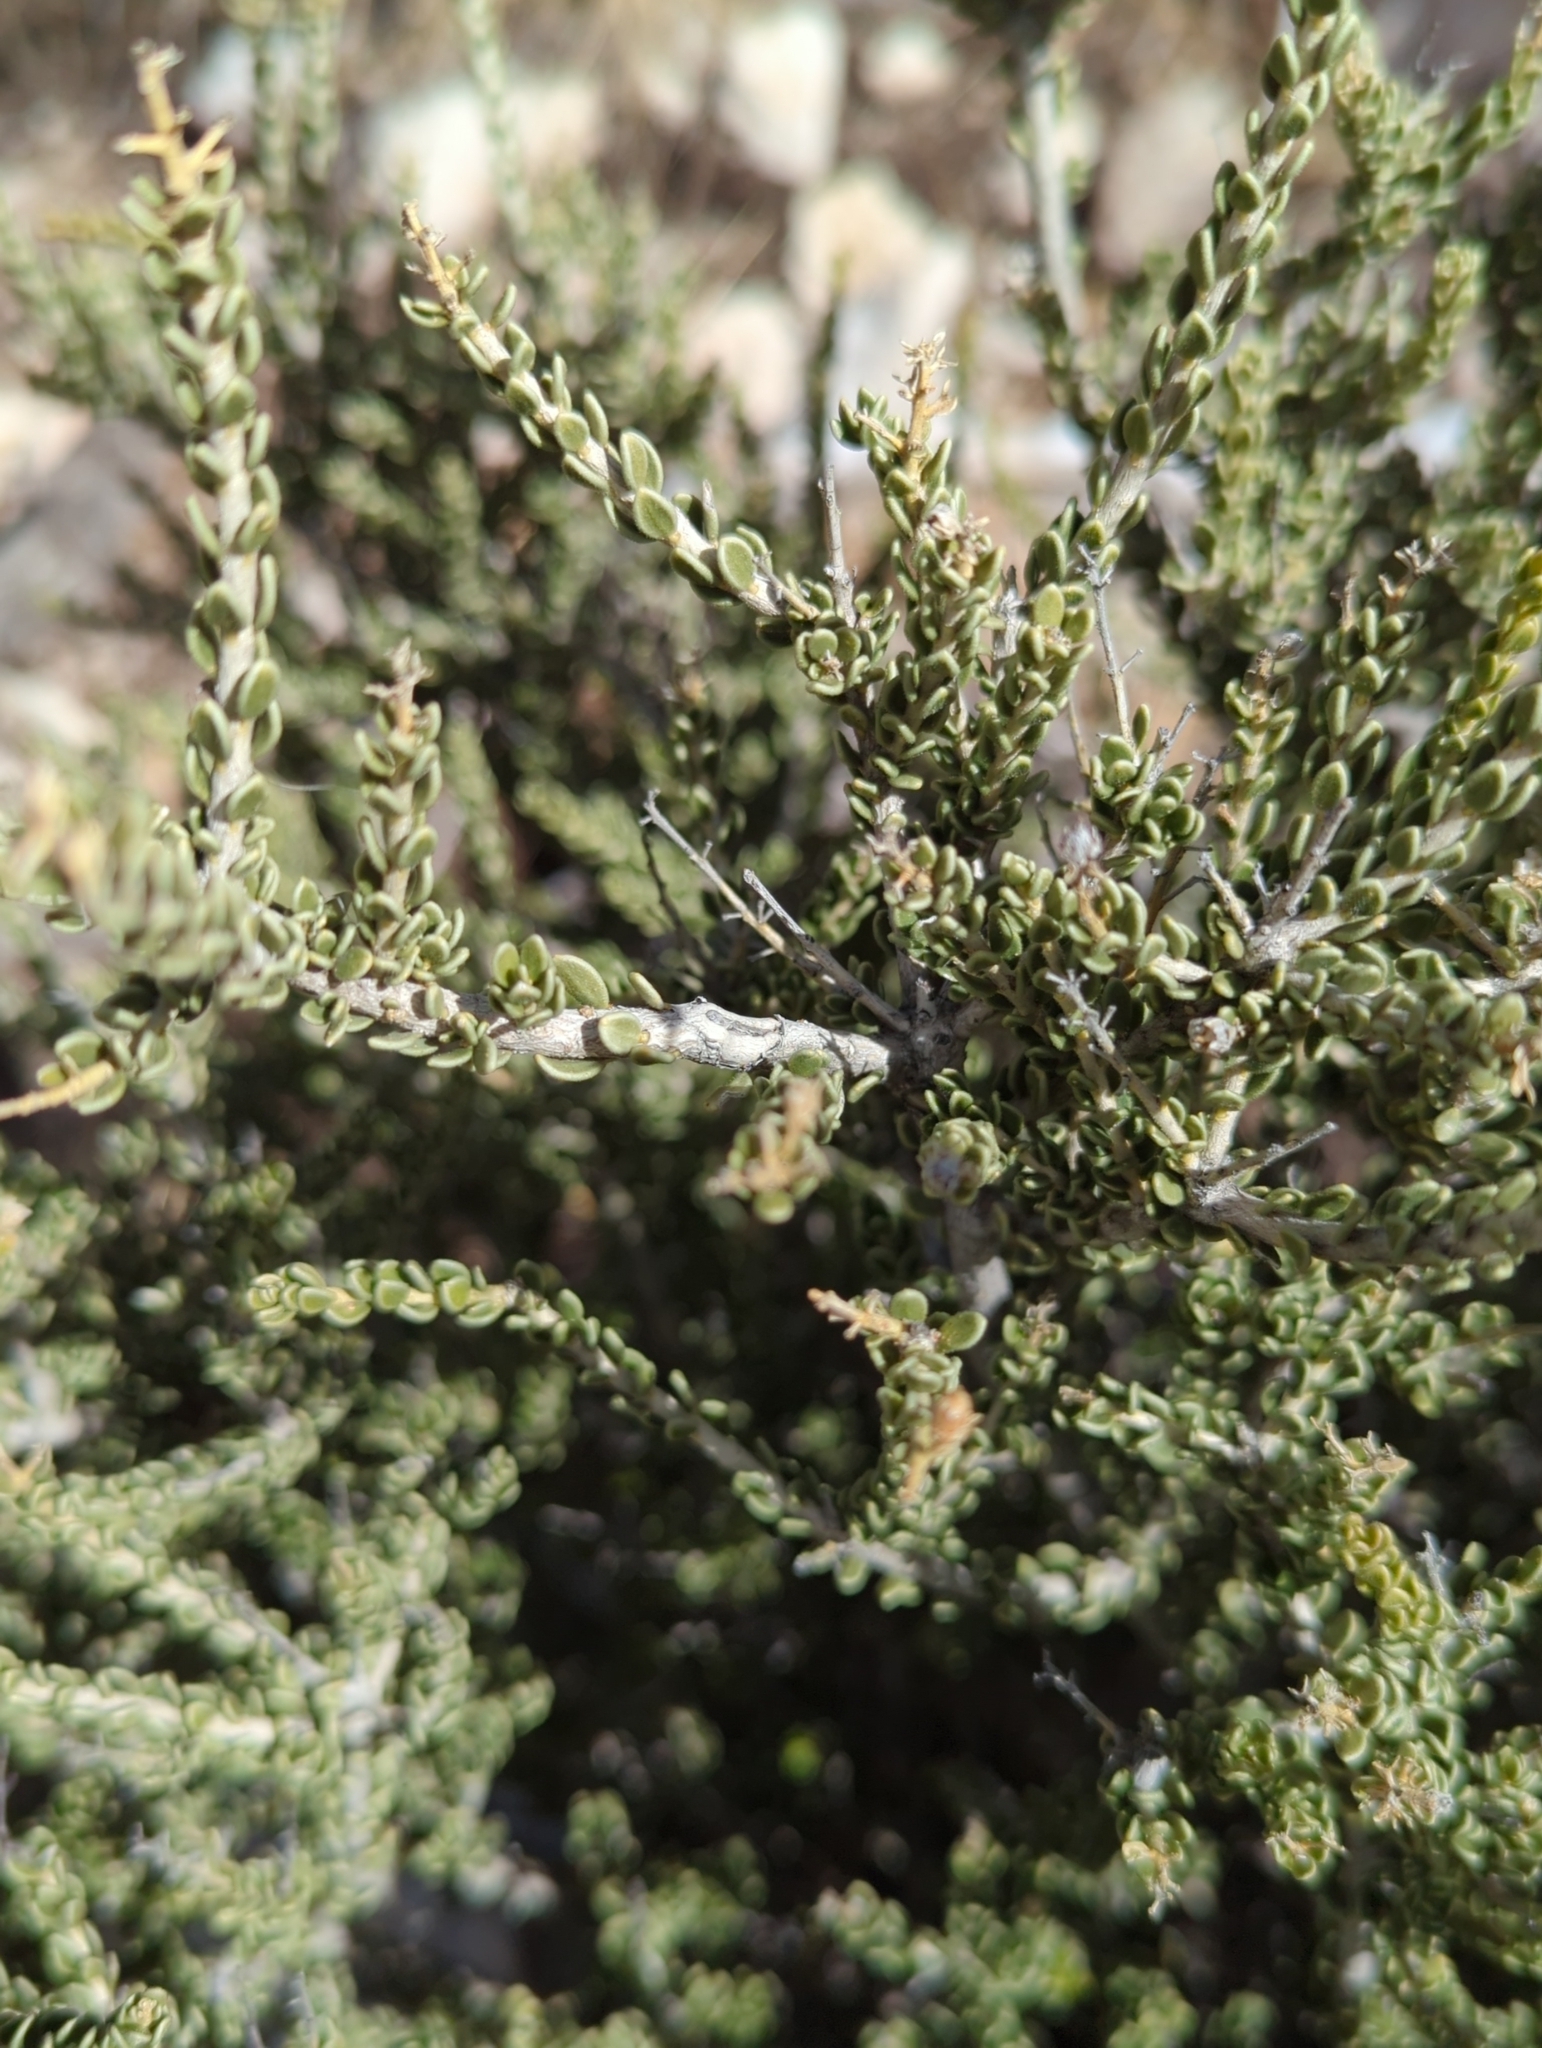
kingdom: Plantae
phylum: Tracheophyta
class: Magnoliopsida
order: Celastrales
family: Celastraceae
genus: Mortonia
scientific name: Mortonia scabrella
